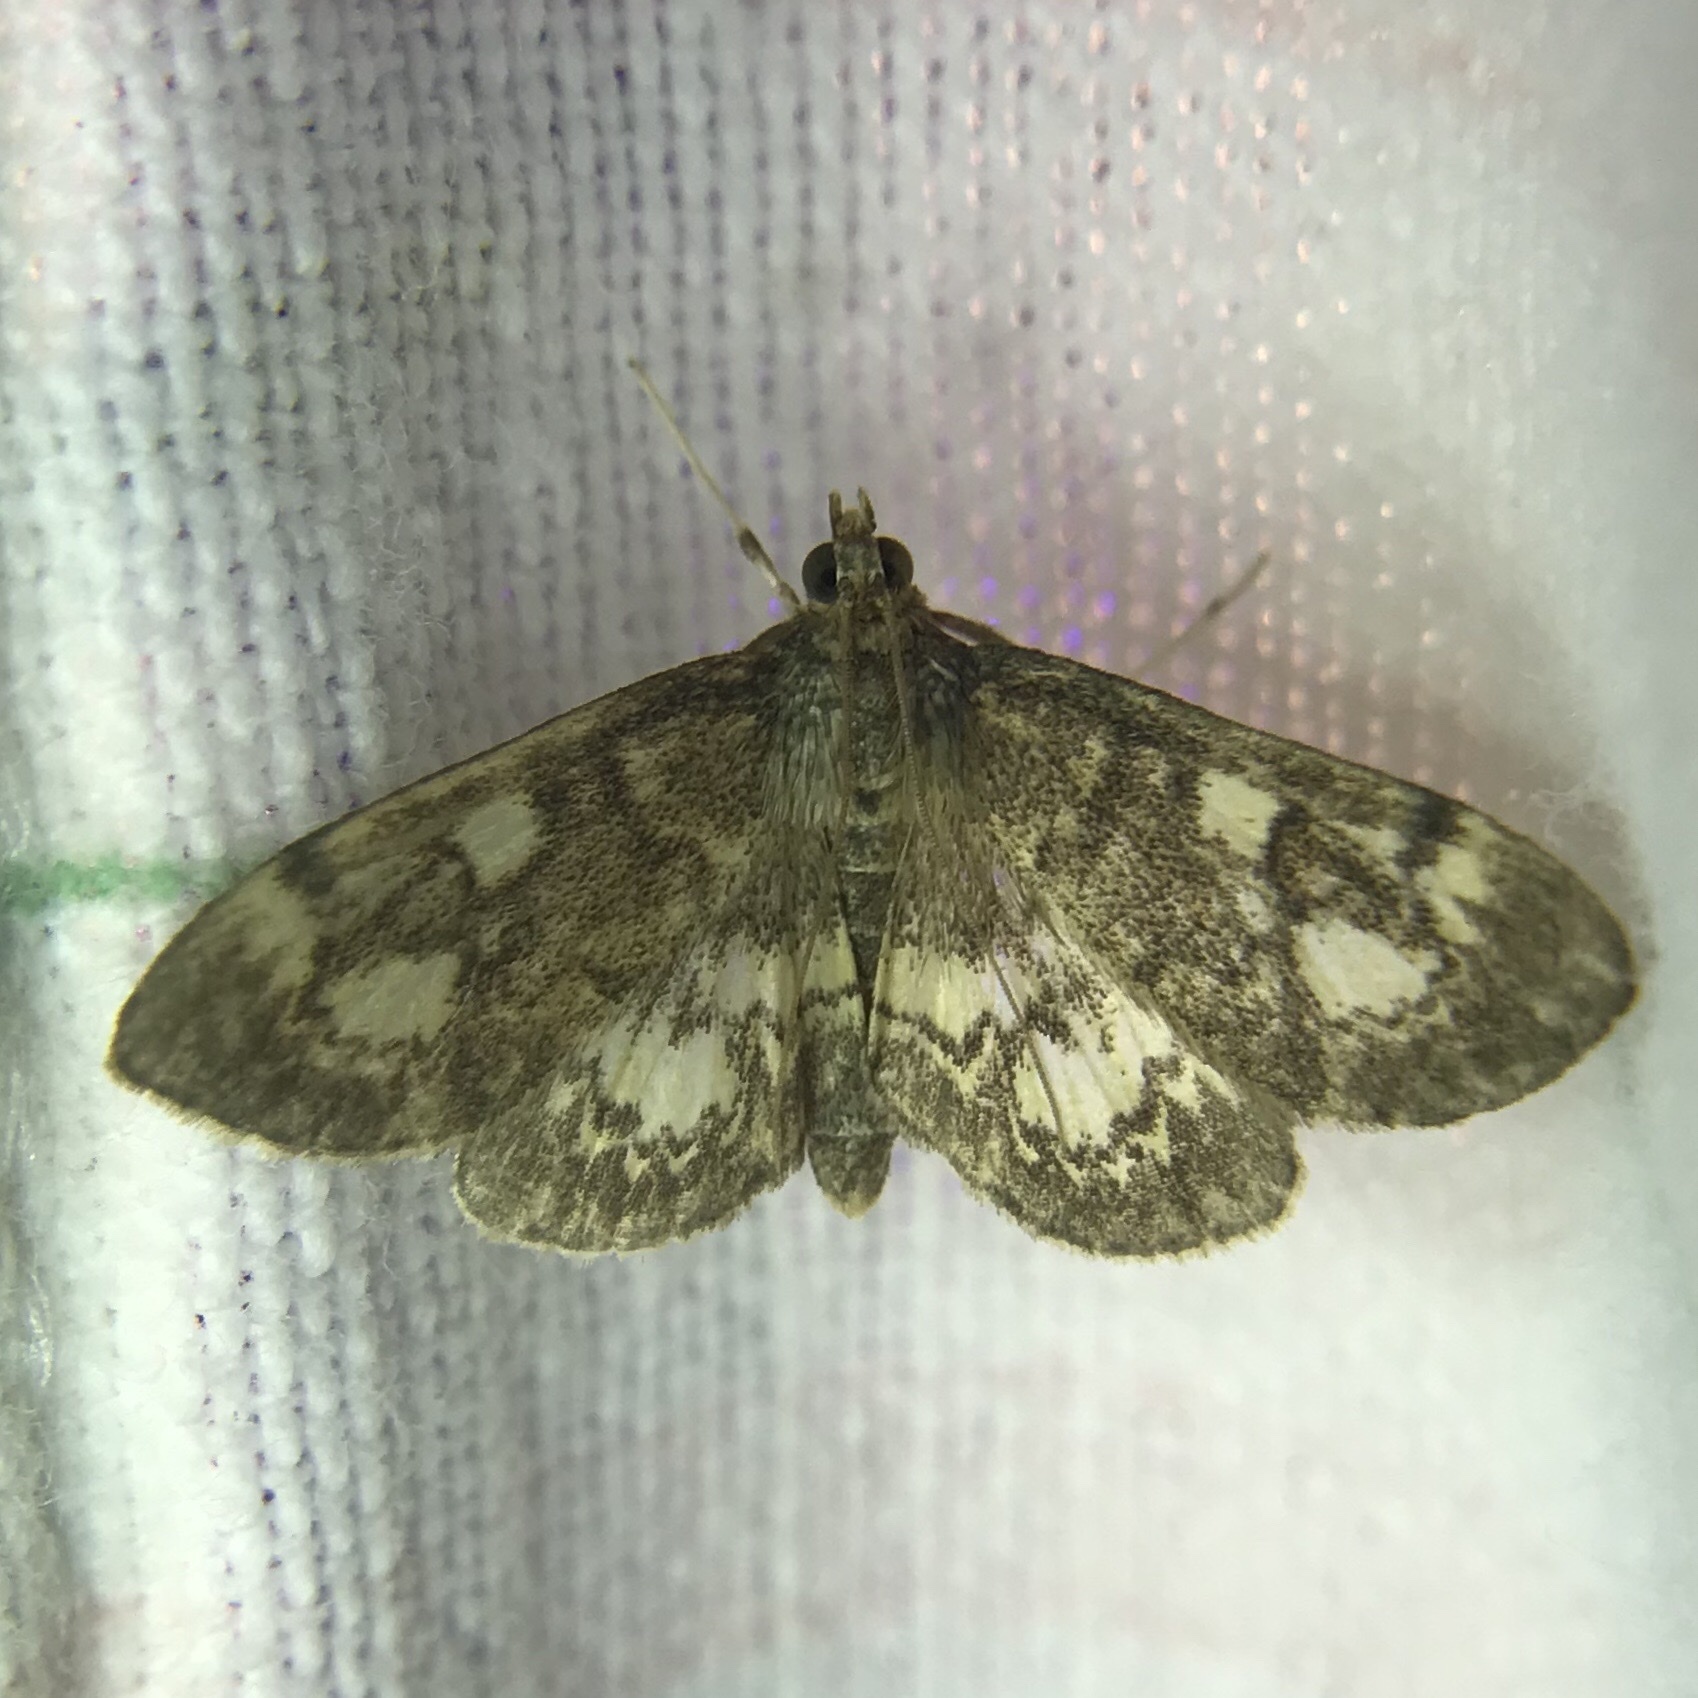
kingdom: Animalia
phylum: Arthropoda
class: Insecta
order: Lepidoptera
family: Crambidae
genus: Anania
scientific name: Anania
